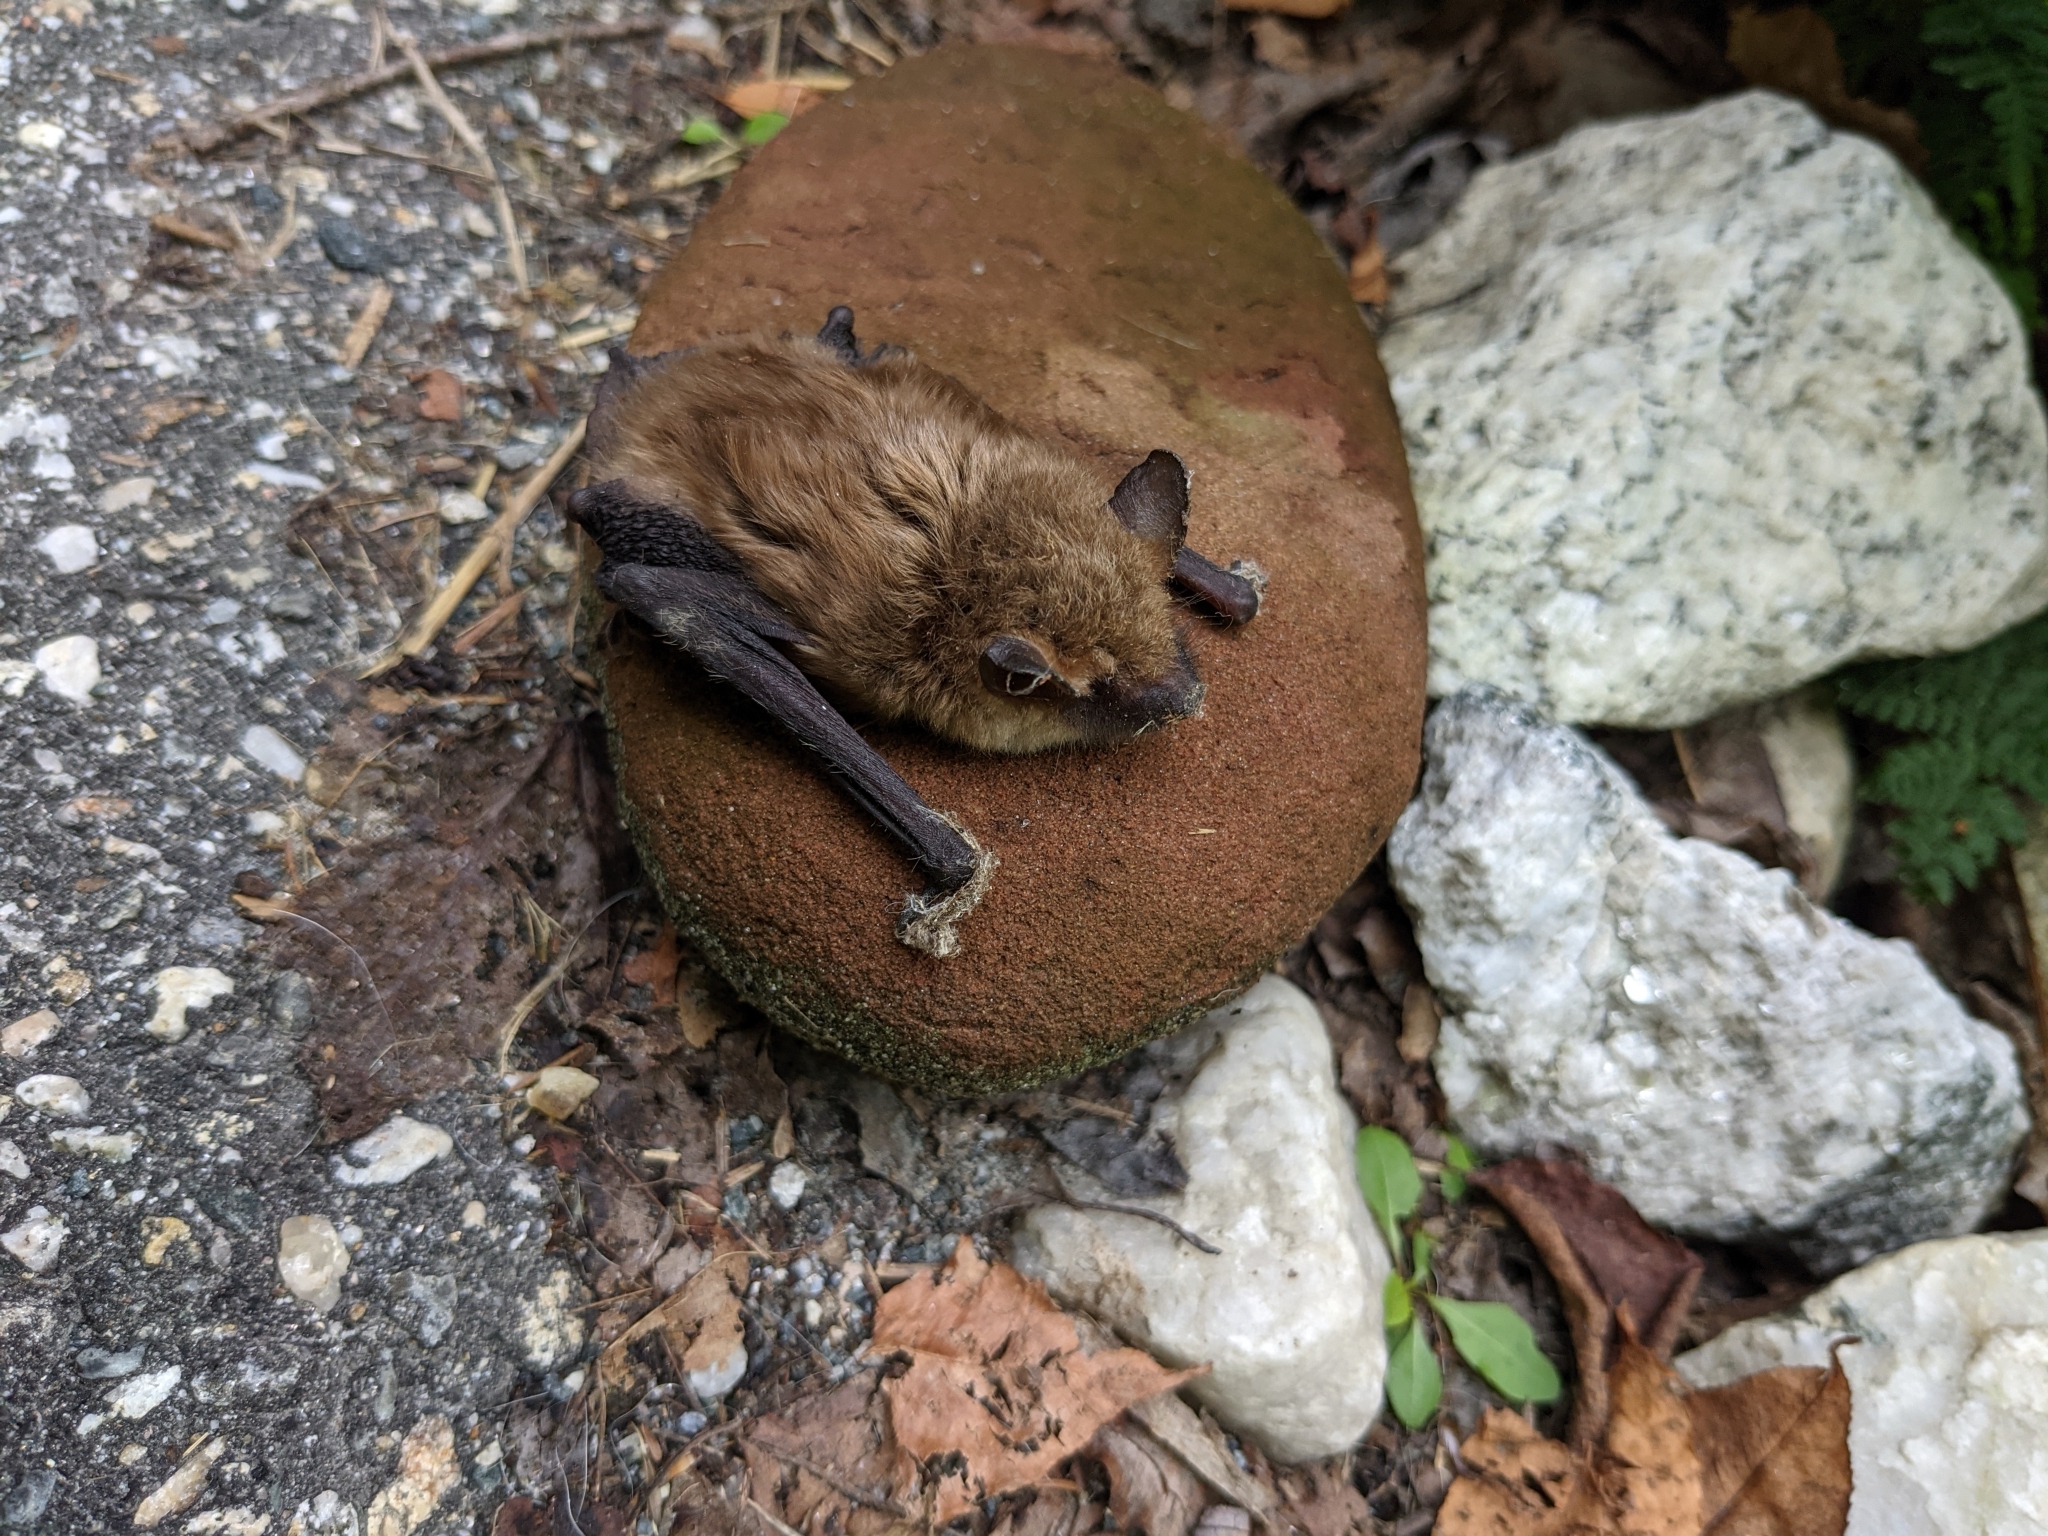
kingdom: Animalia
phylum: Chordata
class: Mammalia
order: Chiroptera
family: Vespertilionidae
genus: Eptesicus
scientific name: Eptesicus fuscus
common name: Big brown bat
